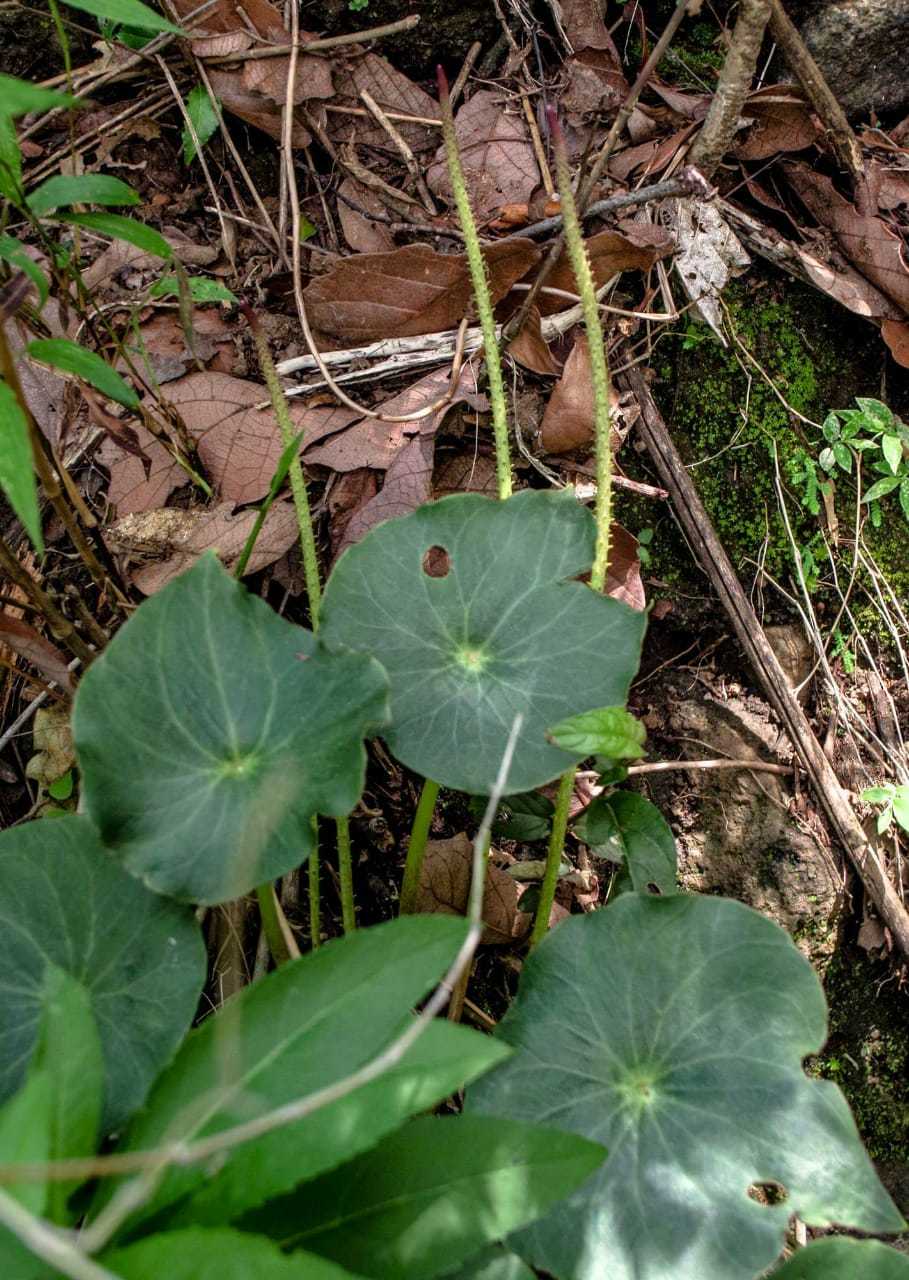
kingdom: Plantae
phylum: Tracheophyta
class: Magnoliopsida
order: Piperales
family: Piperaceae
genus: Peperomia
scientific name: Peperomia ampla
